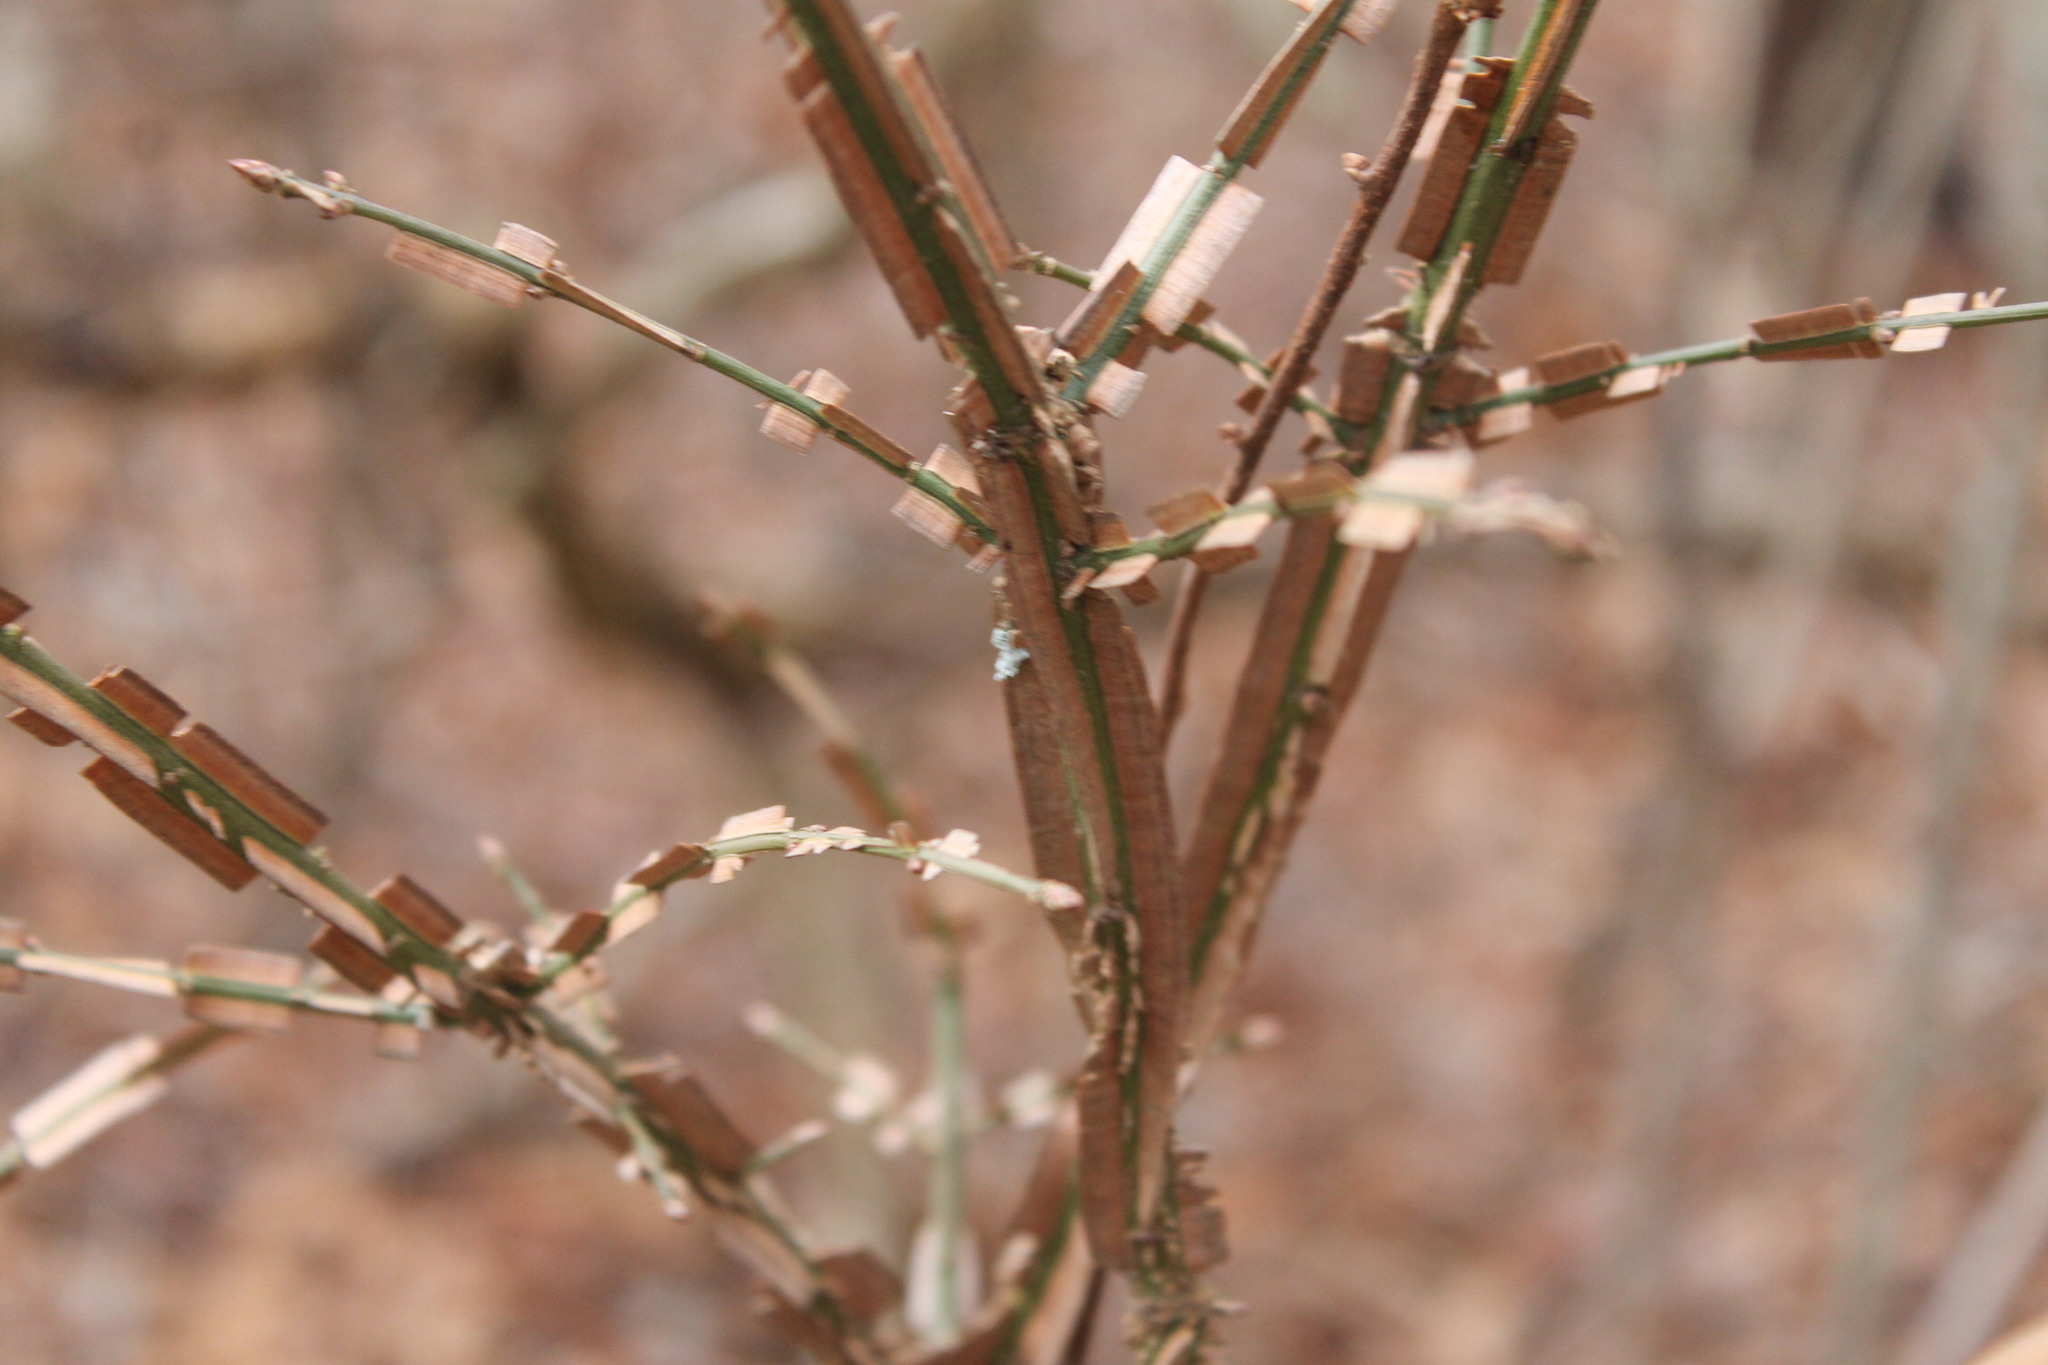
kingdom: Plantae
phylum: Tracheophyta
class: Magnoliopsida
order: Celastrales
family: Celastraceae
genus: Euonymus
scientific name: Euonymus alatus
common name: Winged euonymus
